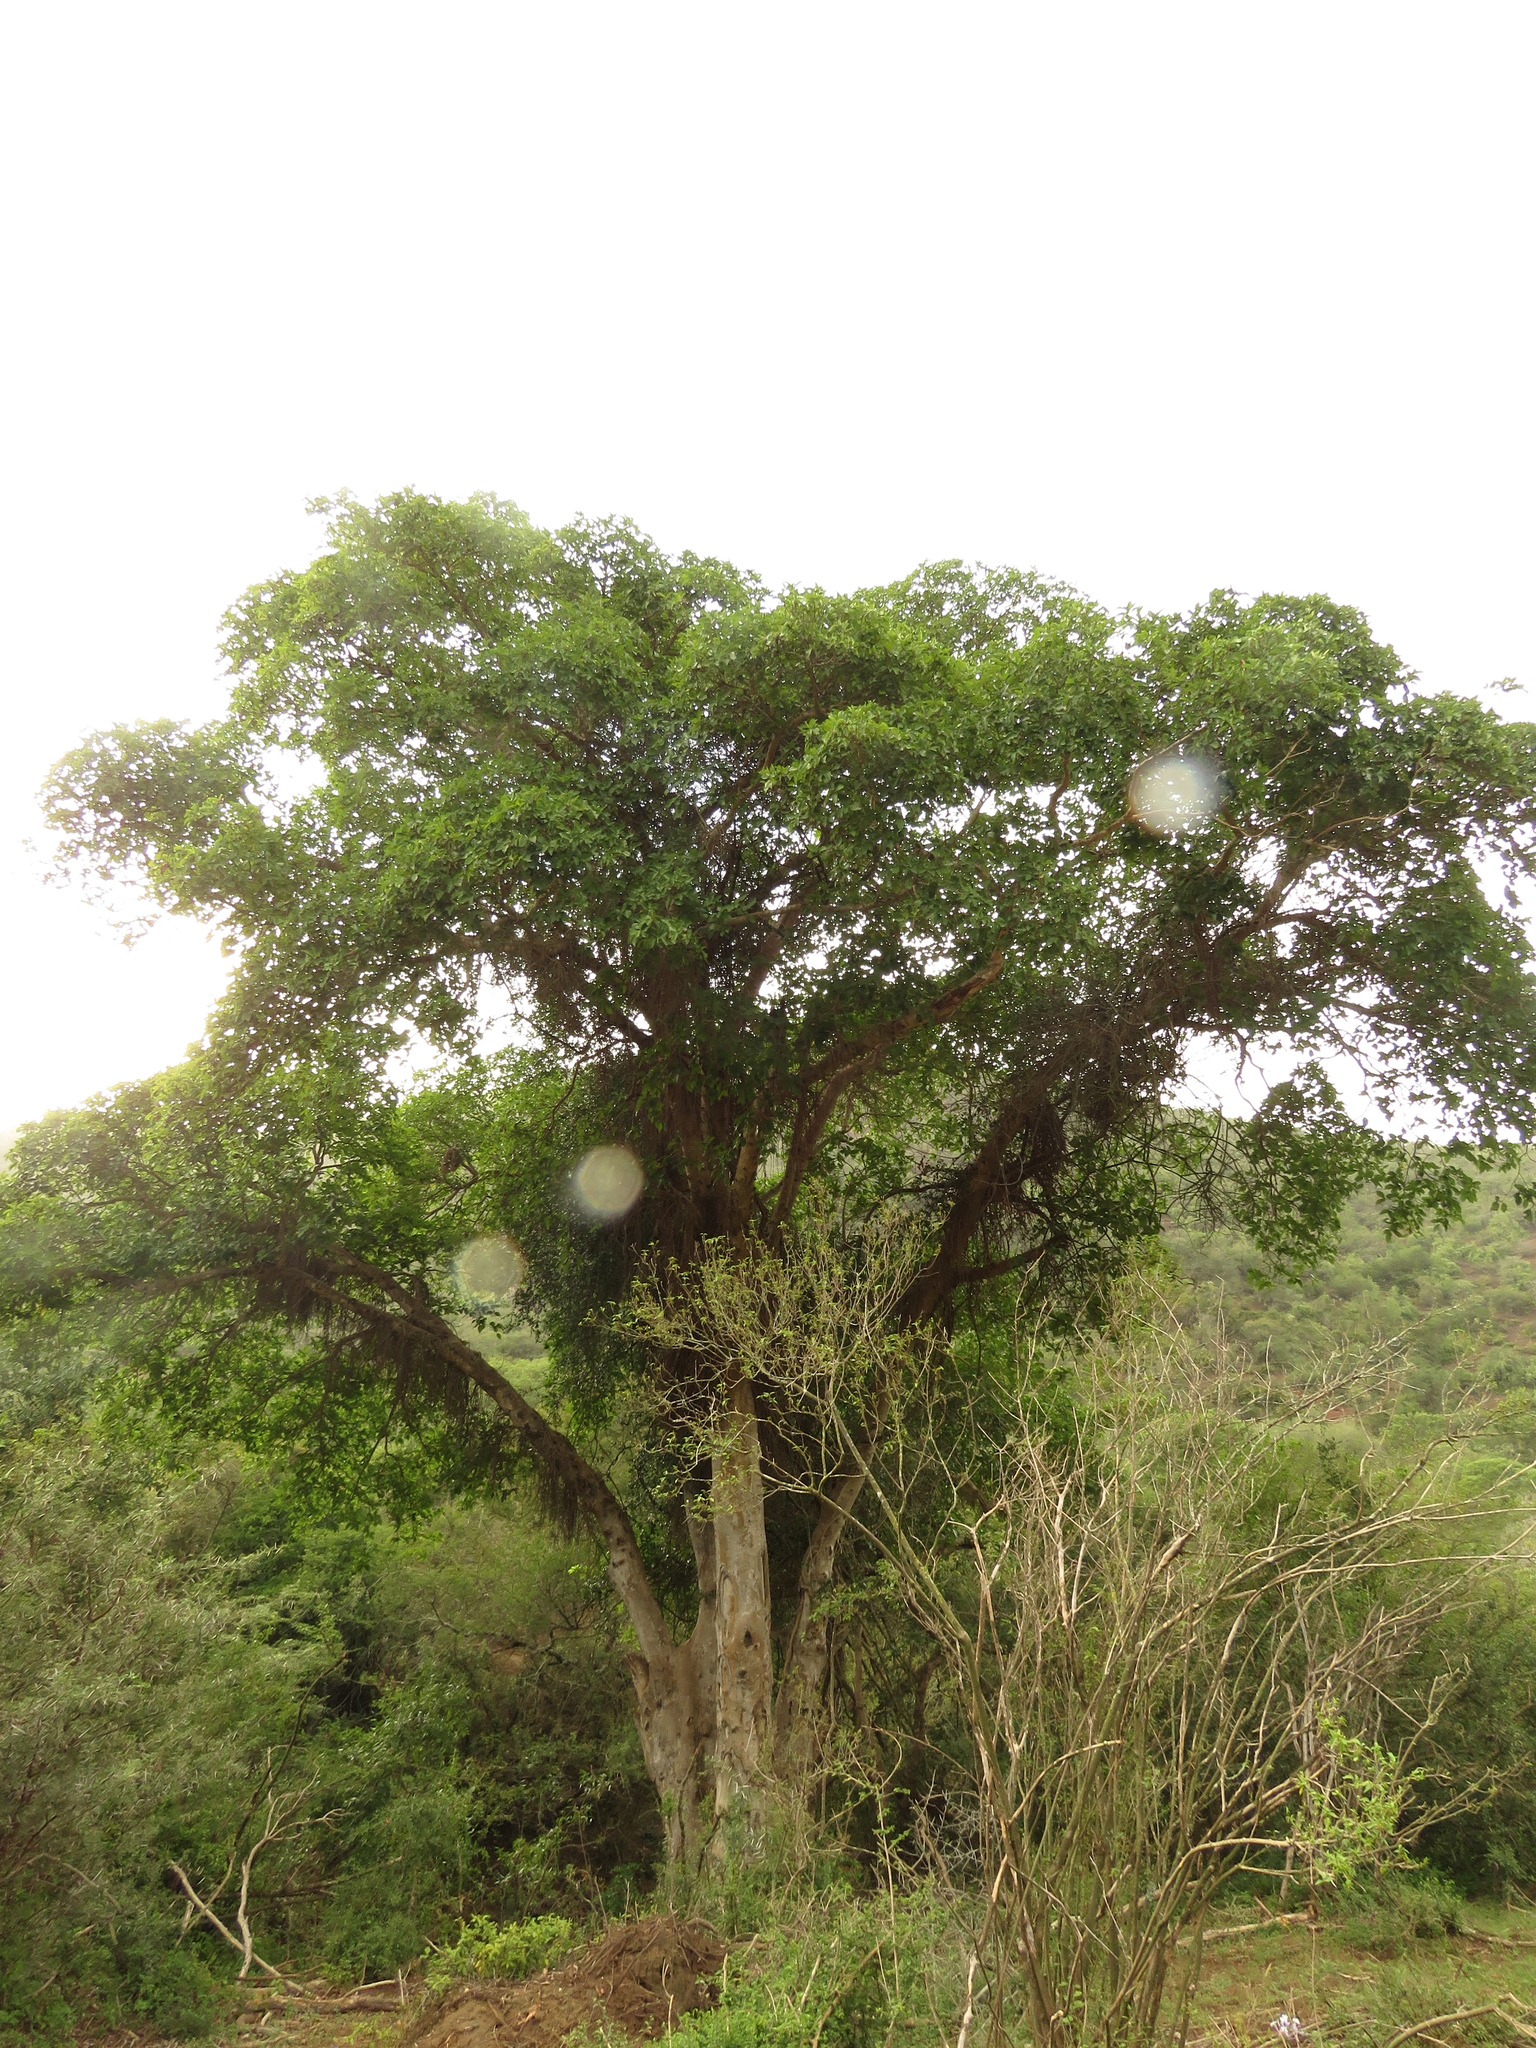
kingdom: Plantae
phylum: Tracheophyta
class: Magnoliopsida
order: Rosales
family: Moraceae
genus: Ficus
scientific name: Ficus sur
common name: Cape fig
